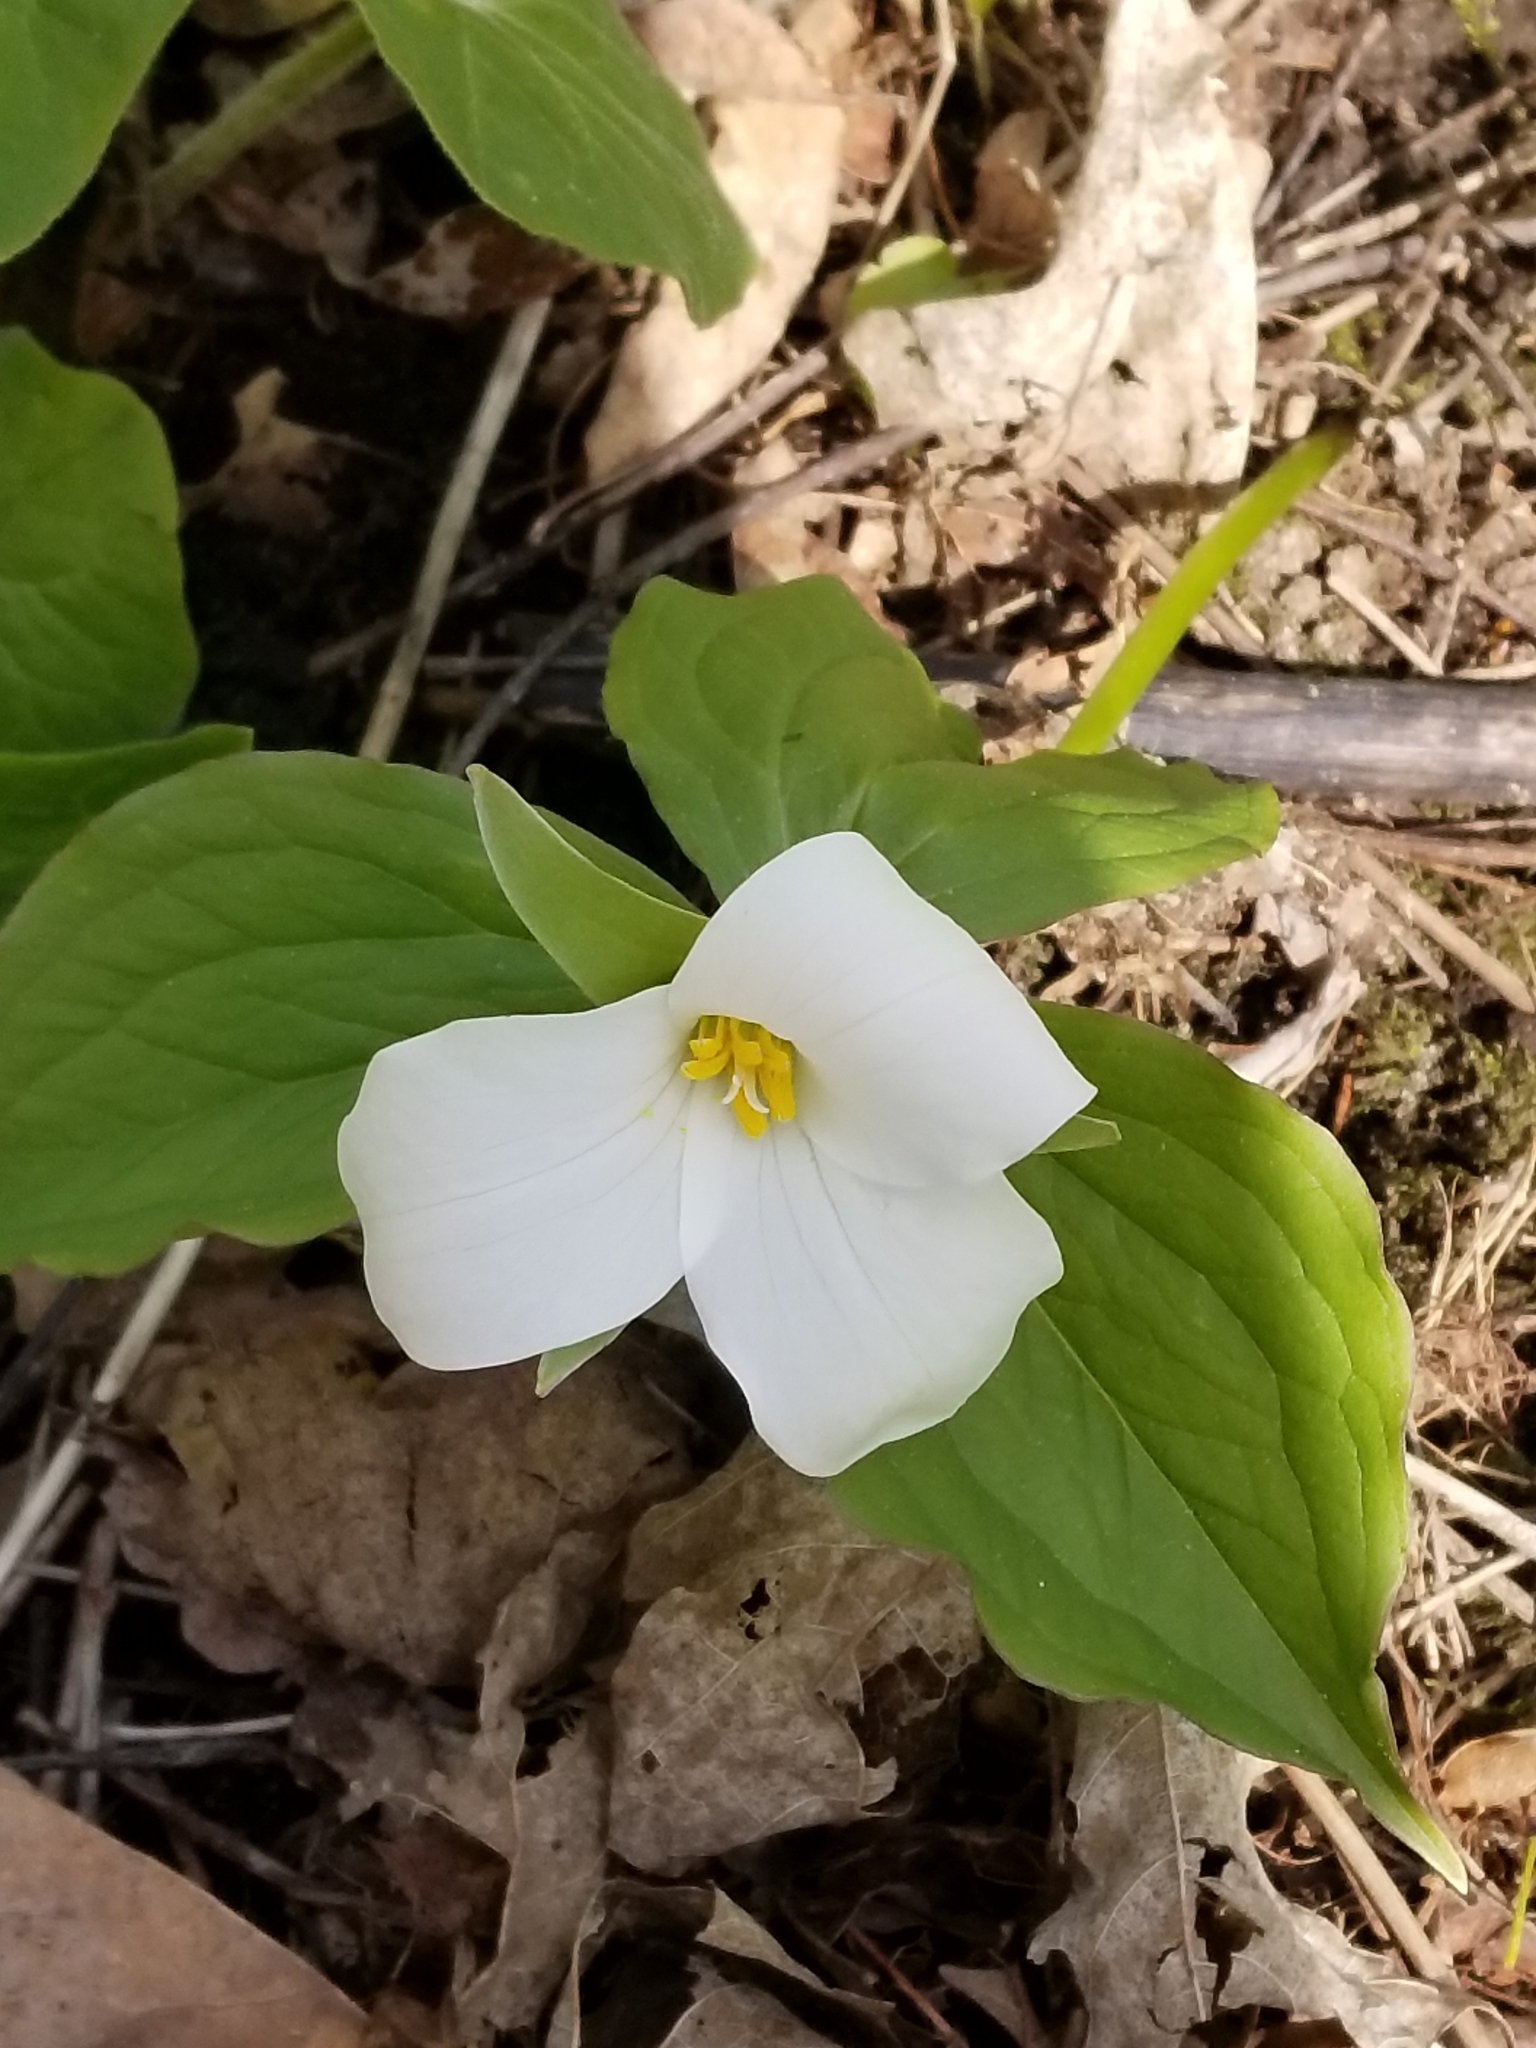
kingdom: Plantae
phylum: Tracheophyta
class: Liliopsida
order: Liliales
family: Melanthiaceae
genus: Trillium
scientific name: Trillium grandiflorum
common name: Great white trillium
